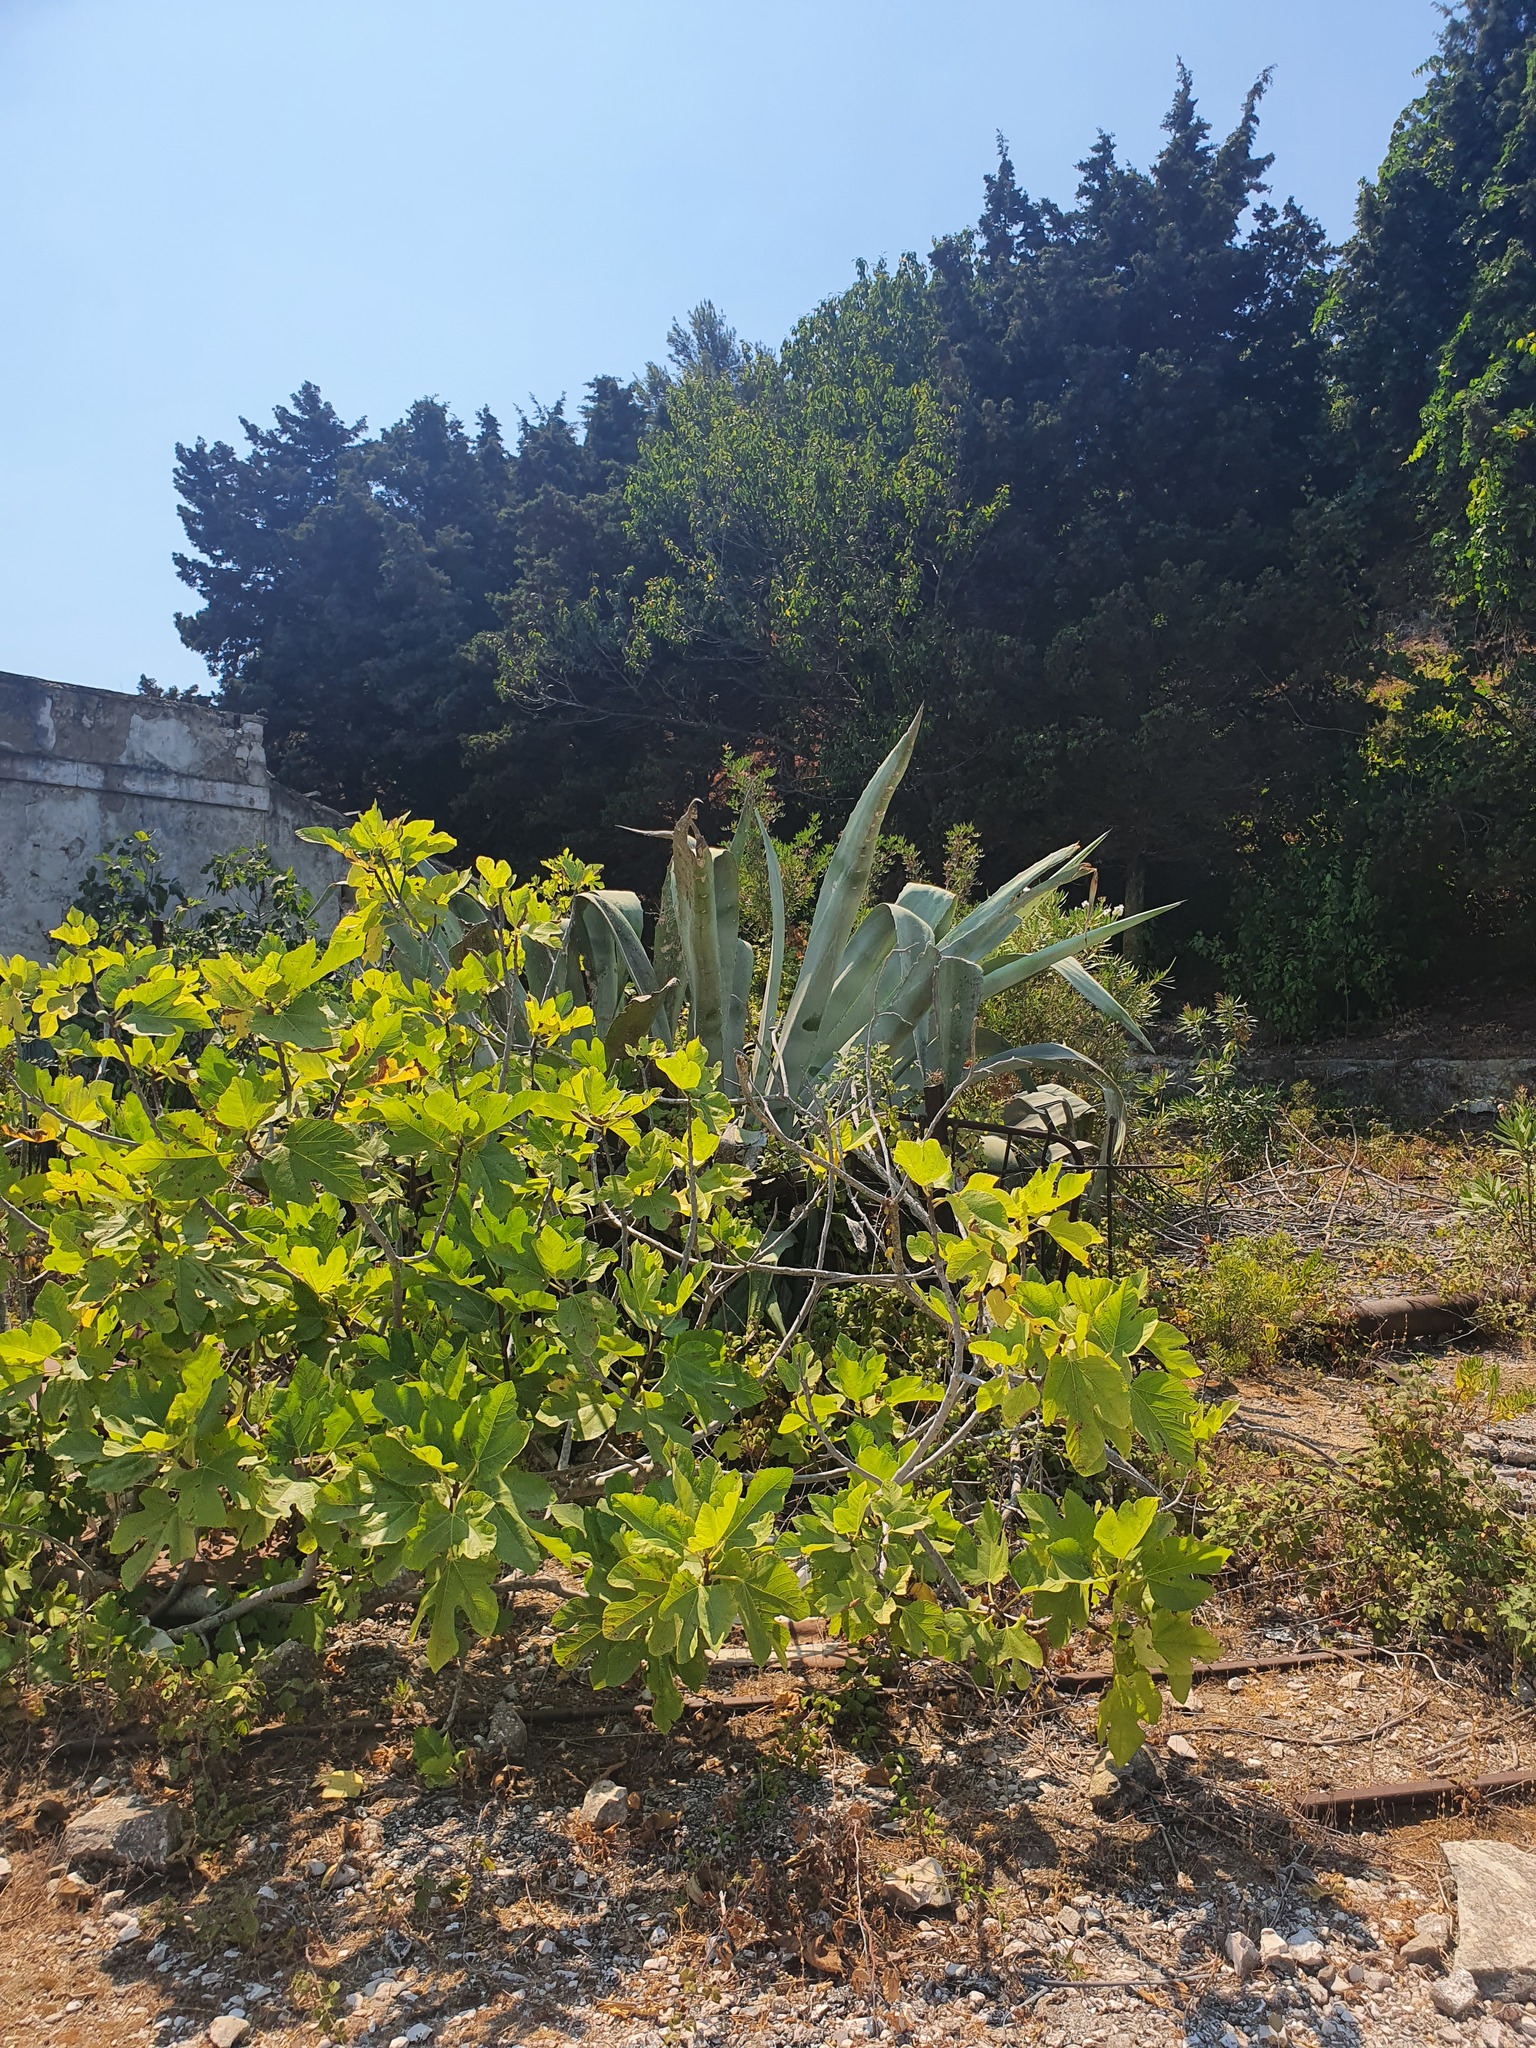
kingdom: Plantae
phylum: Tracheophyta
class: Magnoliopsida
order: Rosales
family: Moraceae
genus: Ficus
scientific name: Ficus carica
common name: Fig
